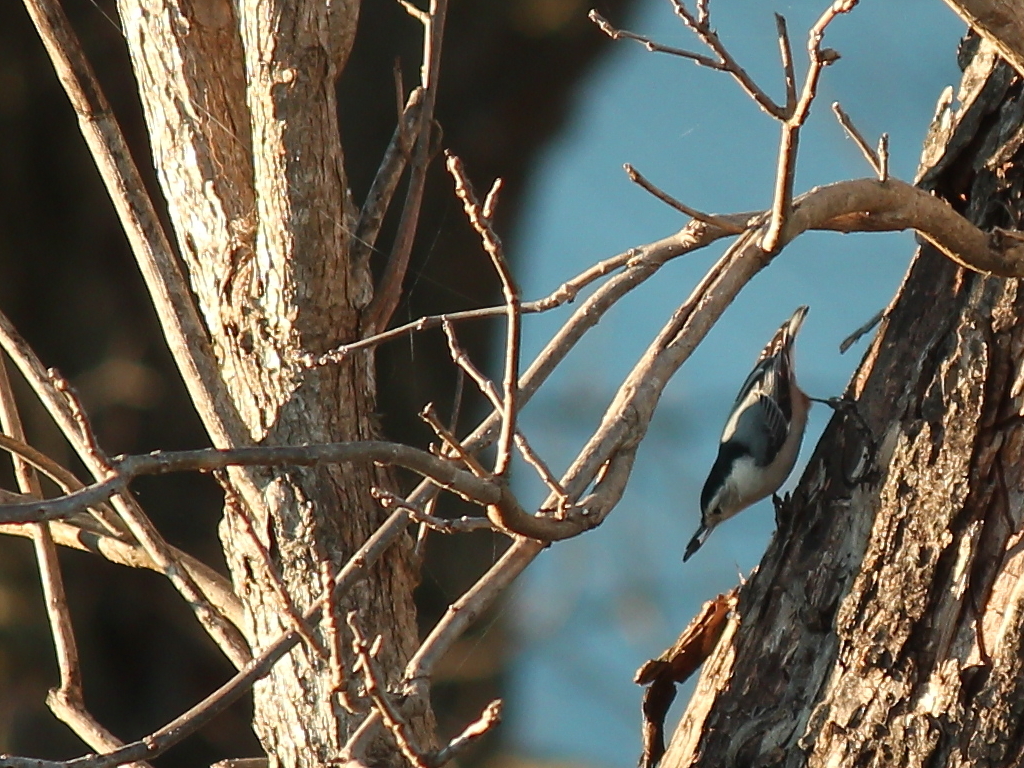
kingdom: Animalia
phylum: Chordata
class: Aves
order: Passeriformes
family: Sittidae
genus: Sitta
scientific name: Sitta carolinensis
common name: White-breasted nuthatch
